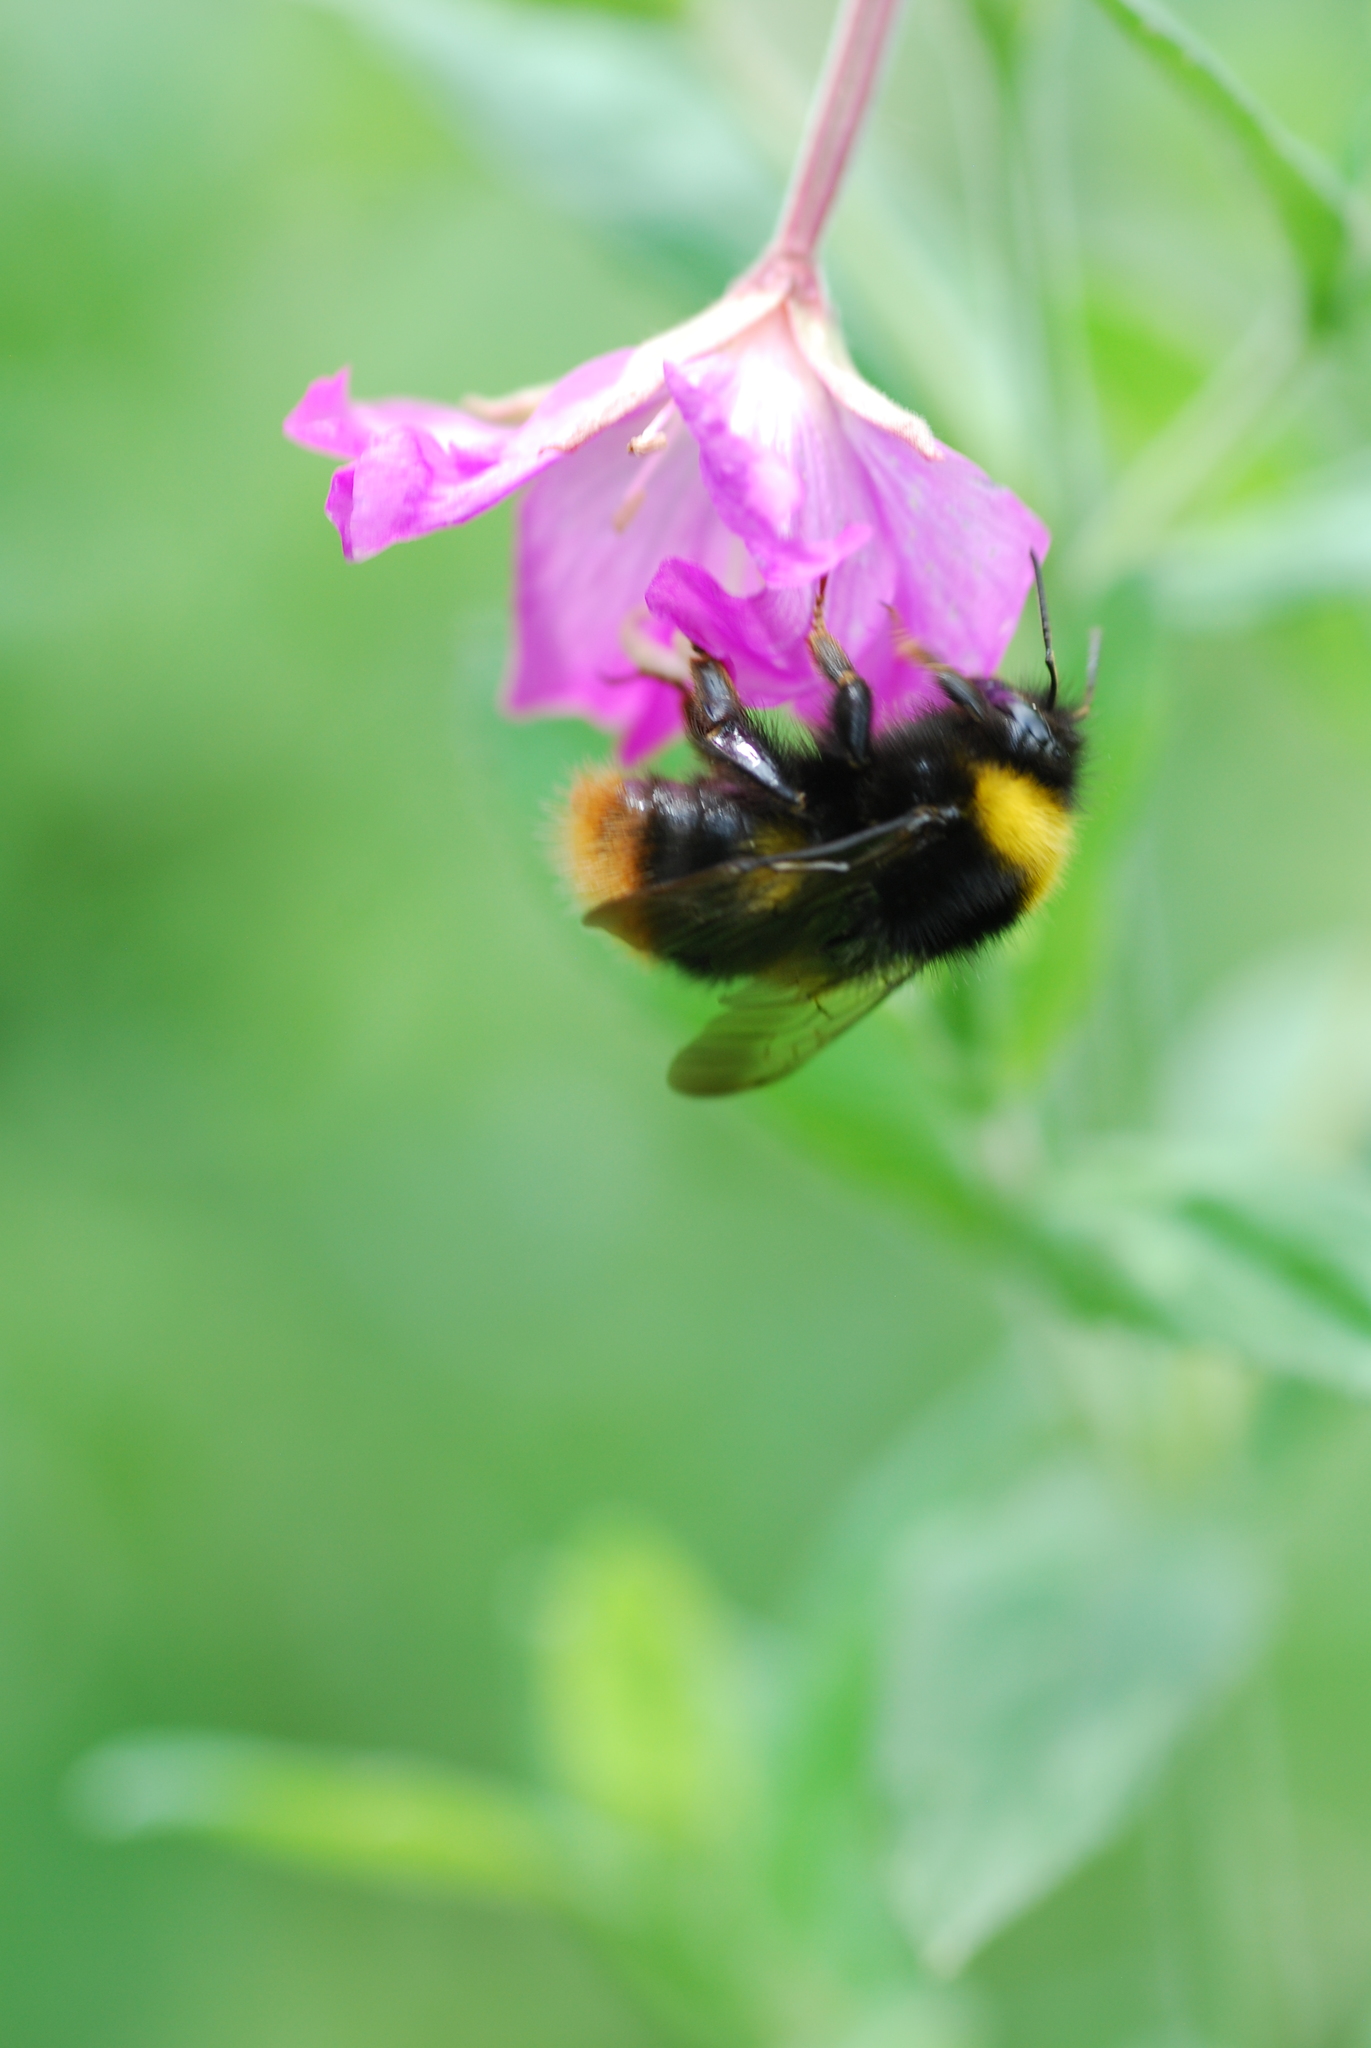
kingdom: Animalia
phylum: Arthropoda
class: Insecta
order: Hymenoptera
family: Apidae
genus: Bombus
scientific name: Bombus pratorum
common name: Early humble-bee
